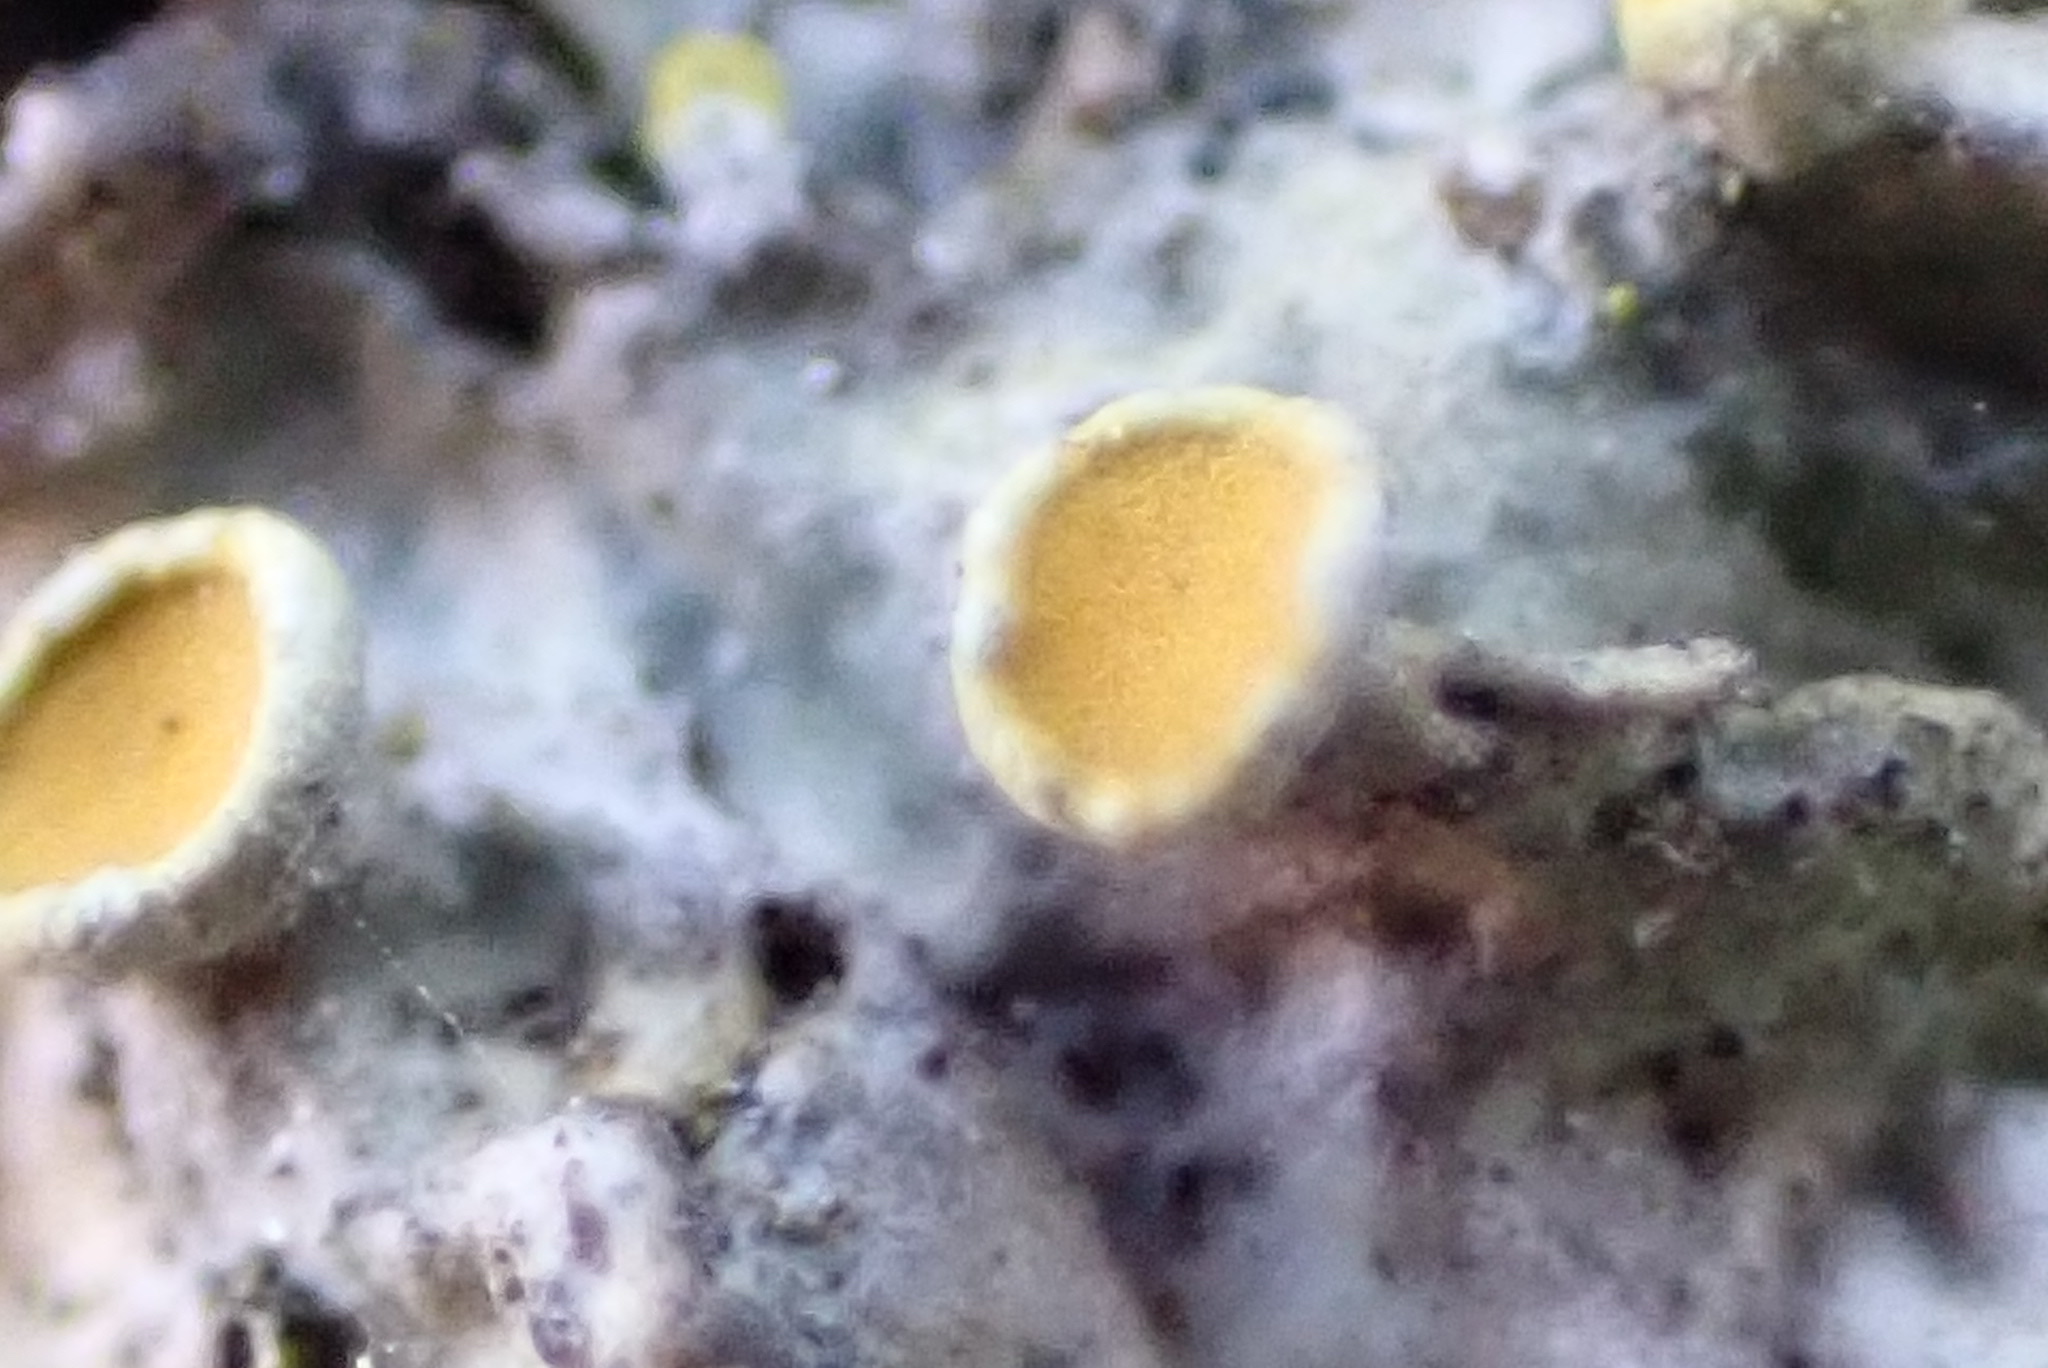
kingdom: Fungi
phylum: Ascomycota
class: Lecanoromycetes
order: Teloschistales
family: Teloschistaceae
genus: Xanthoria
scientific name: Xanthoria parietina
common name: Common orange lichen
